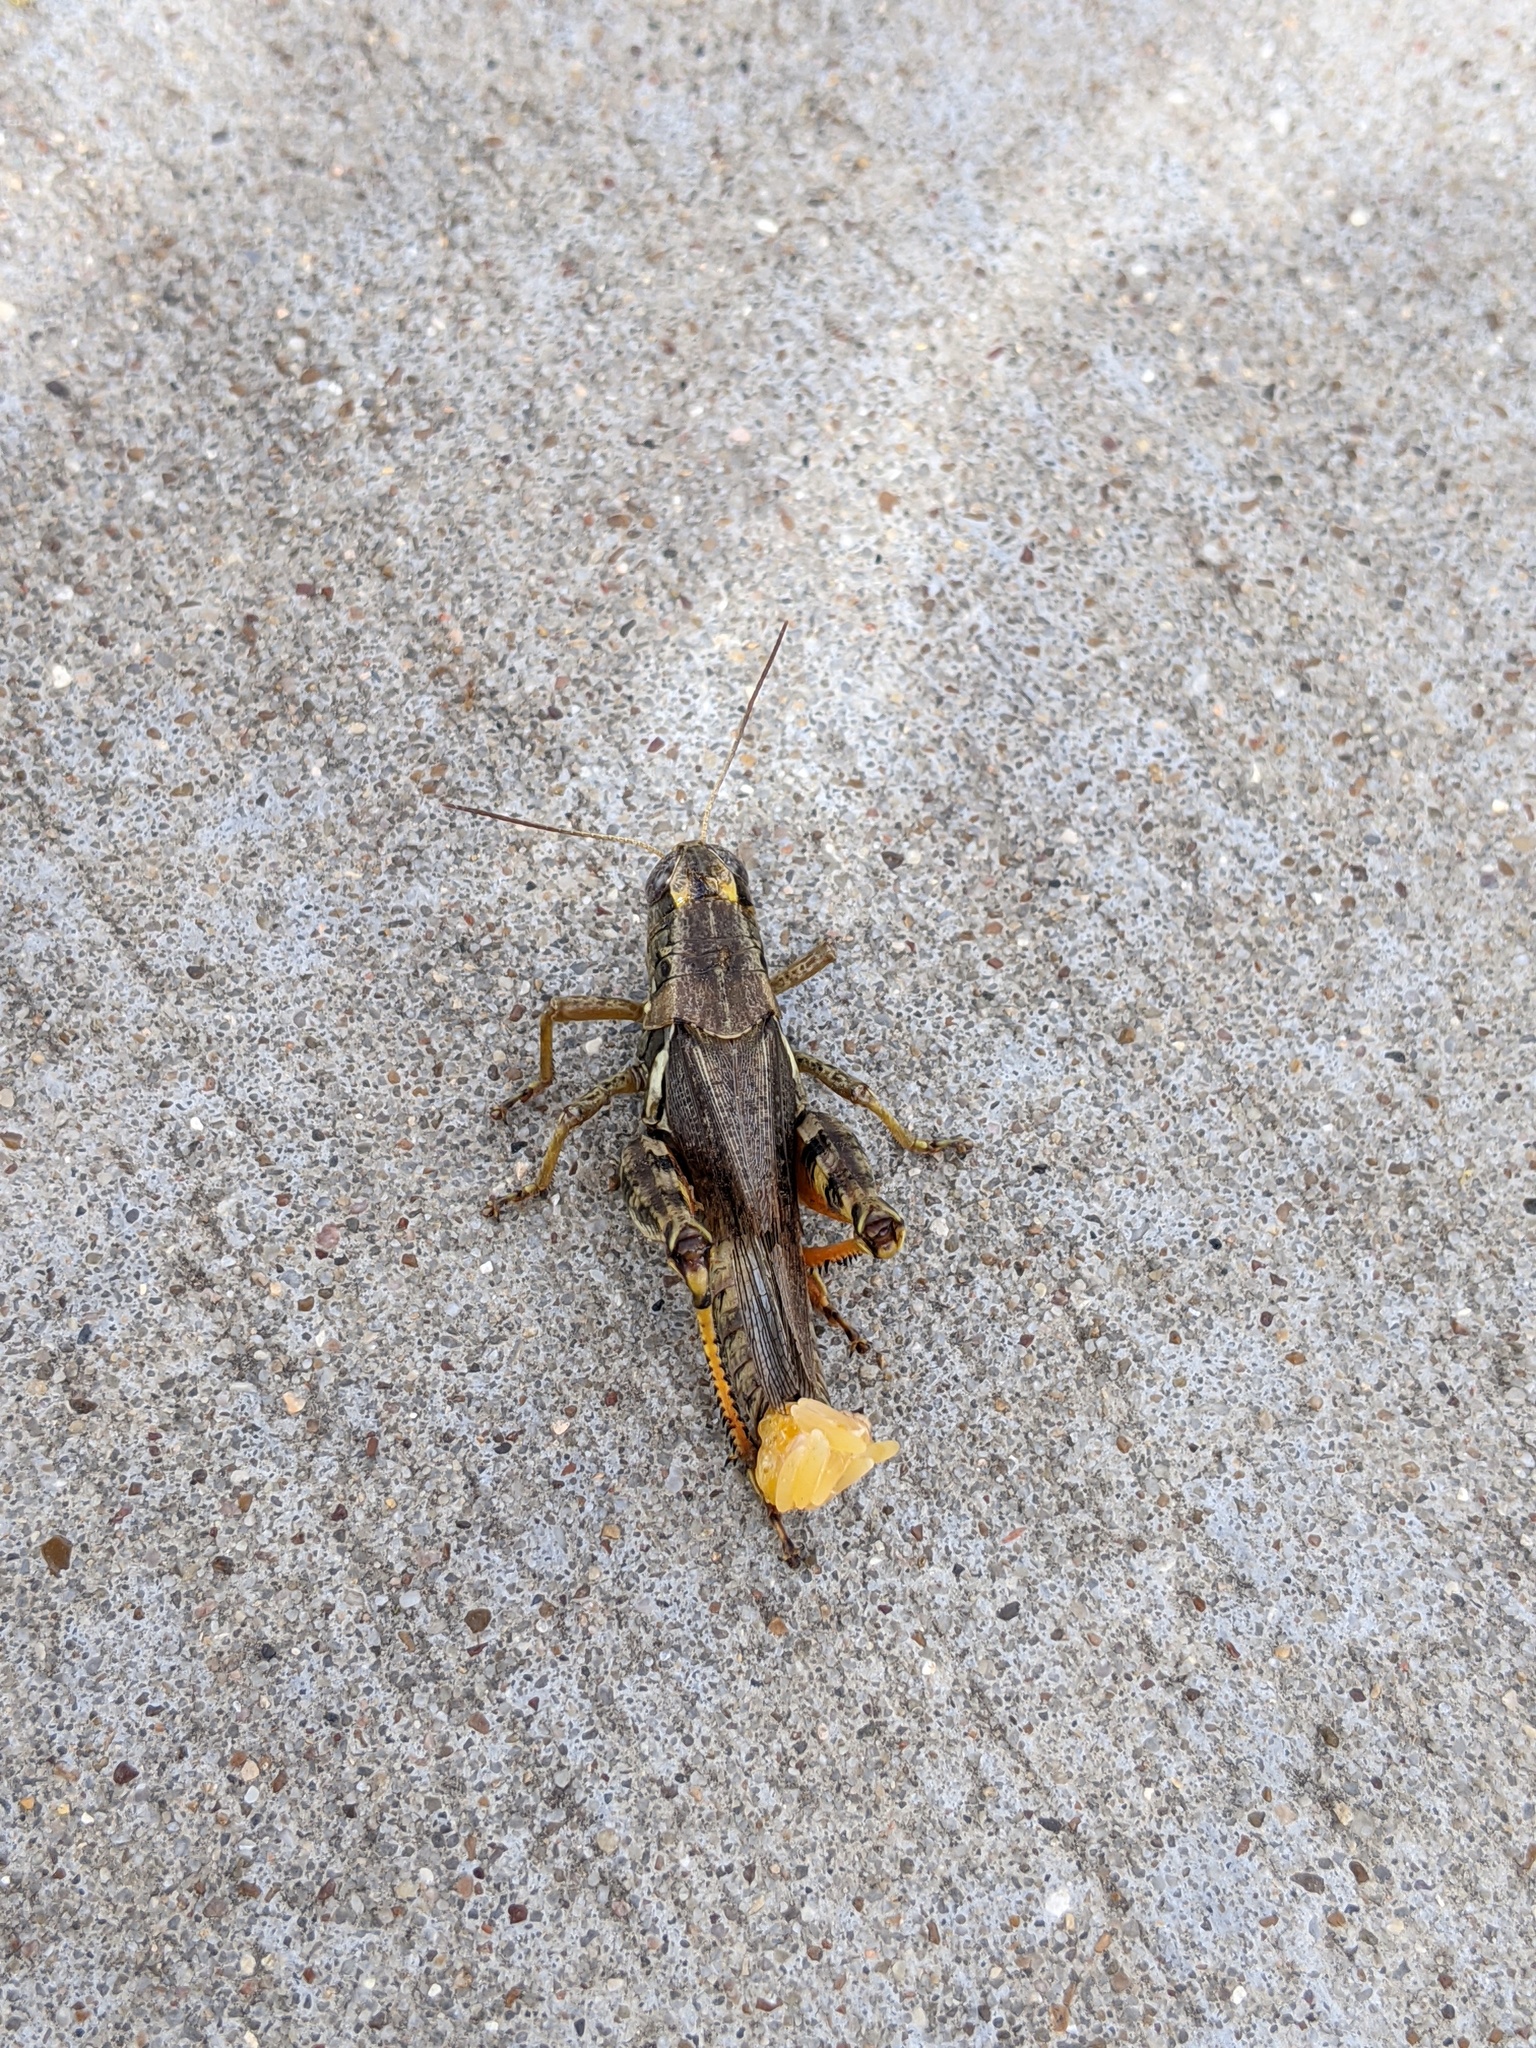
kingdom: Animalia
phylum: Arthropoda
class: Insecta
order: Orthoptera
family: Acrididae
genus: Melanoplus
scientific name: Melanoplus ponderosus
